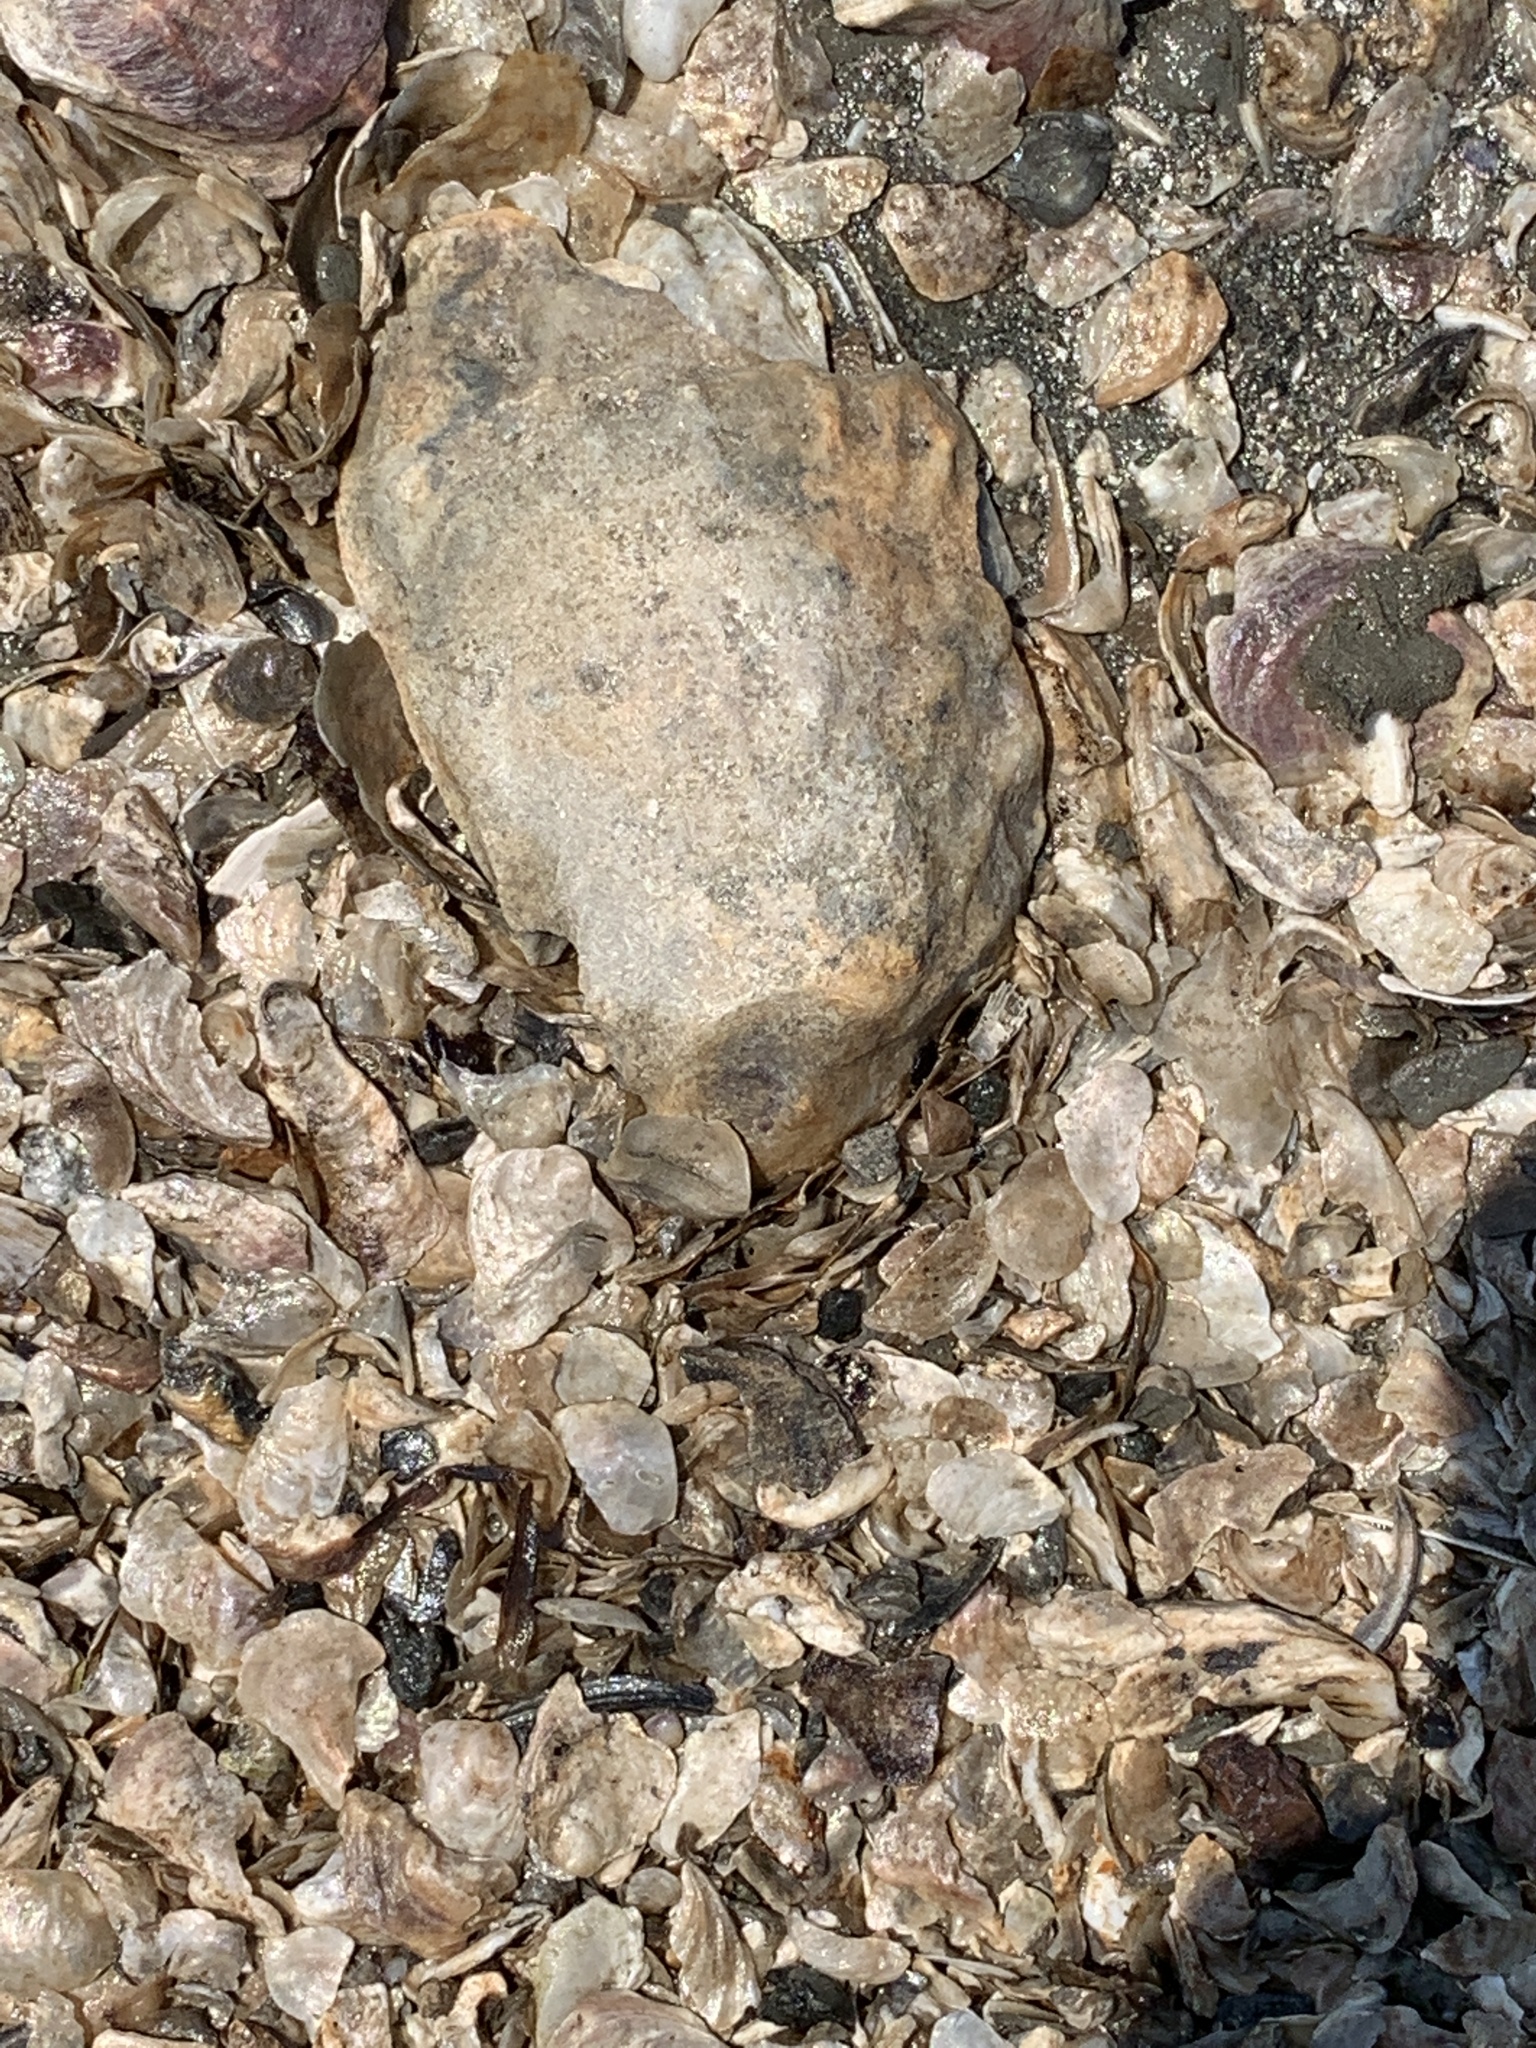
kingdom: Animalia
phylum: Mollusca
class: Bivalvia
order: Ostreida
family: Ostreidae
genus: Magallana
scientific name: Magallana gigas
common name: Pacific oyster
